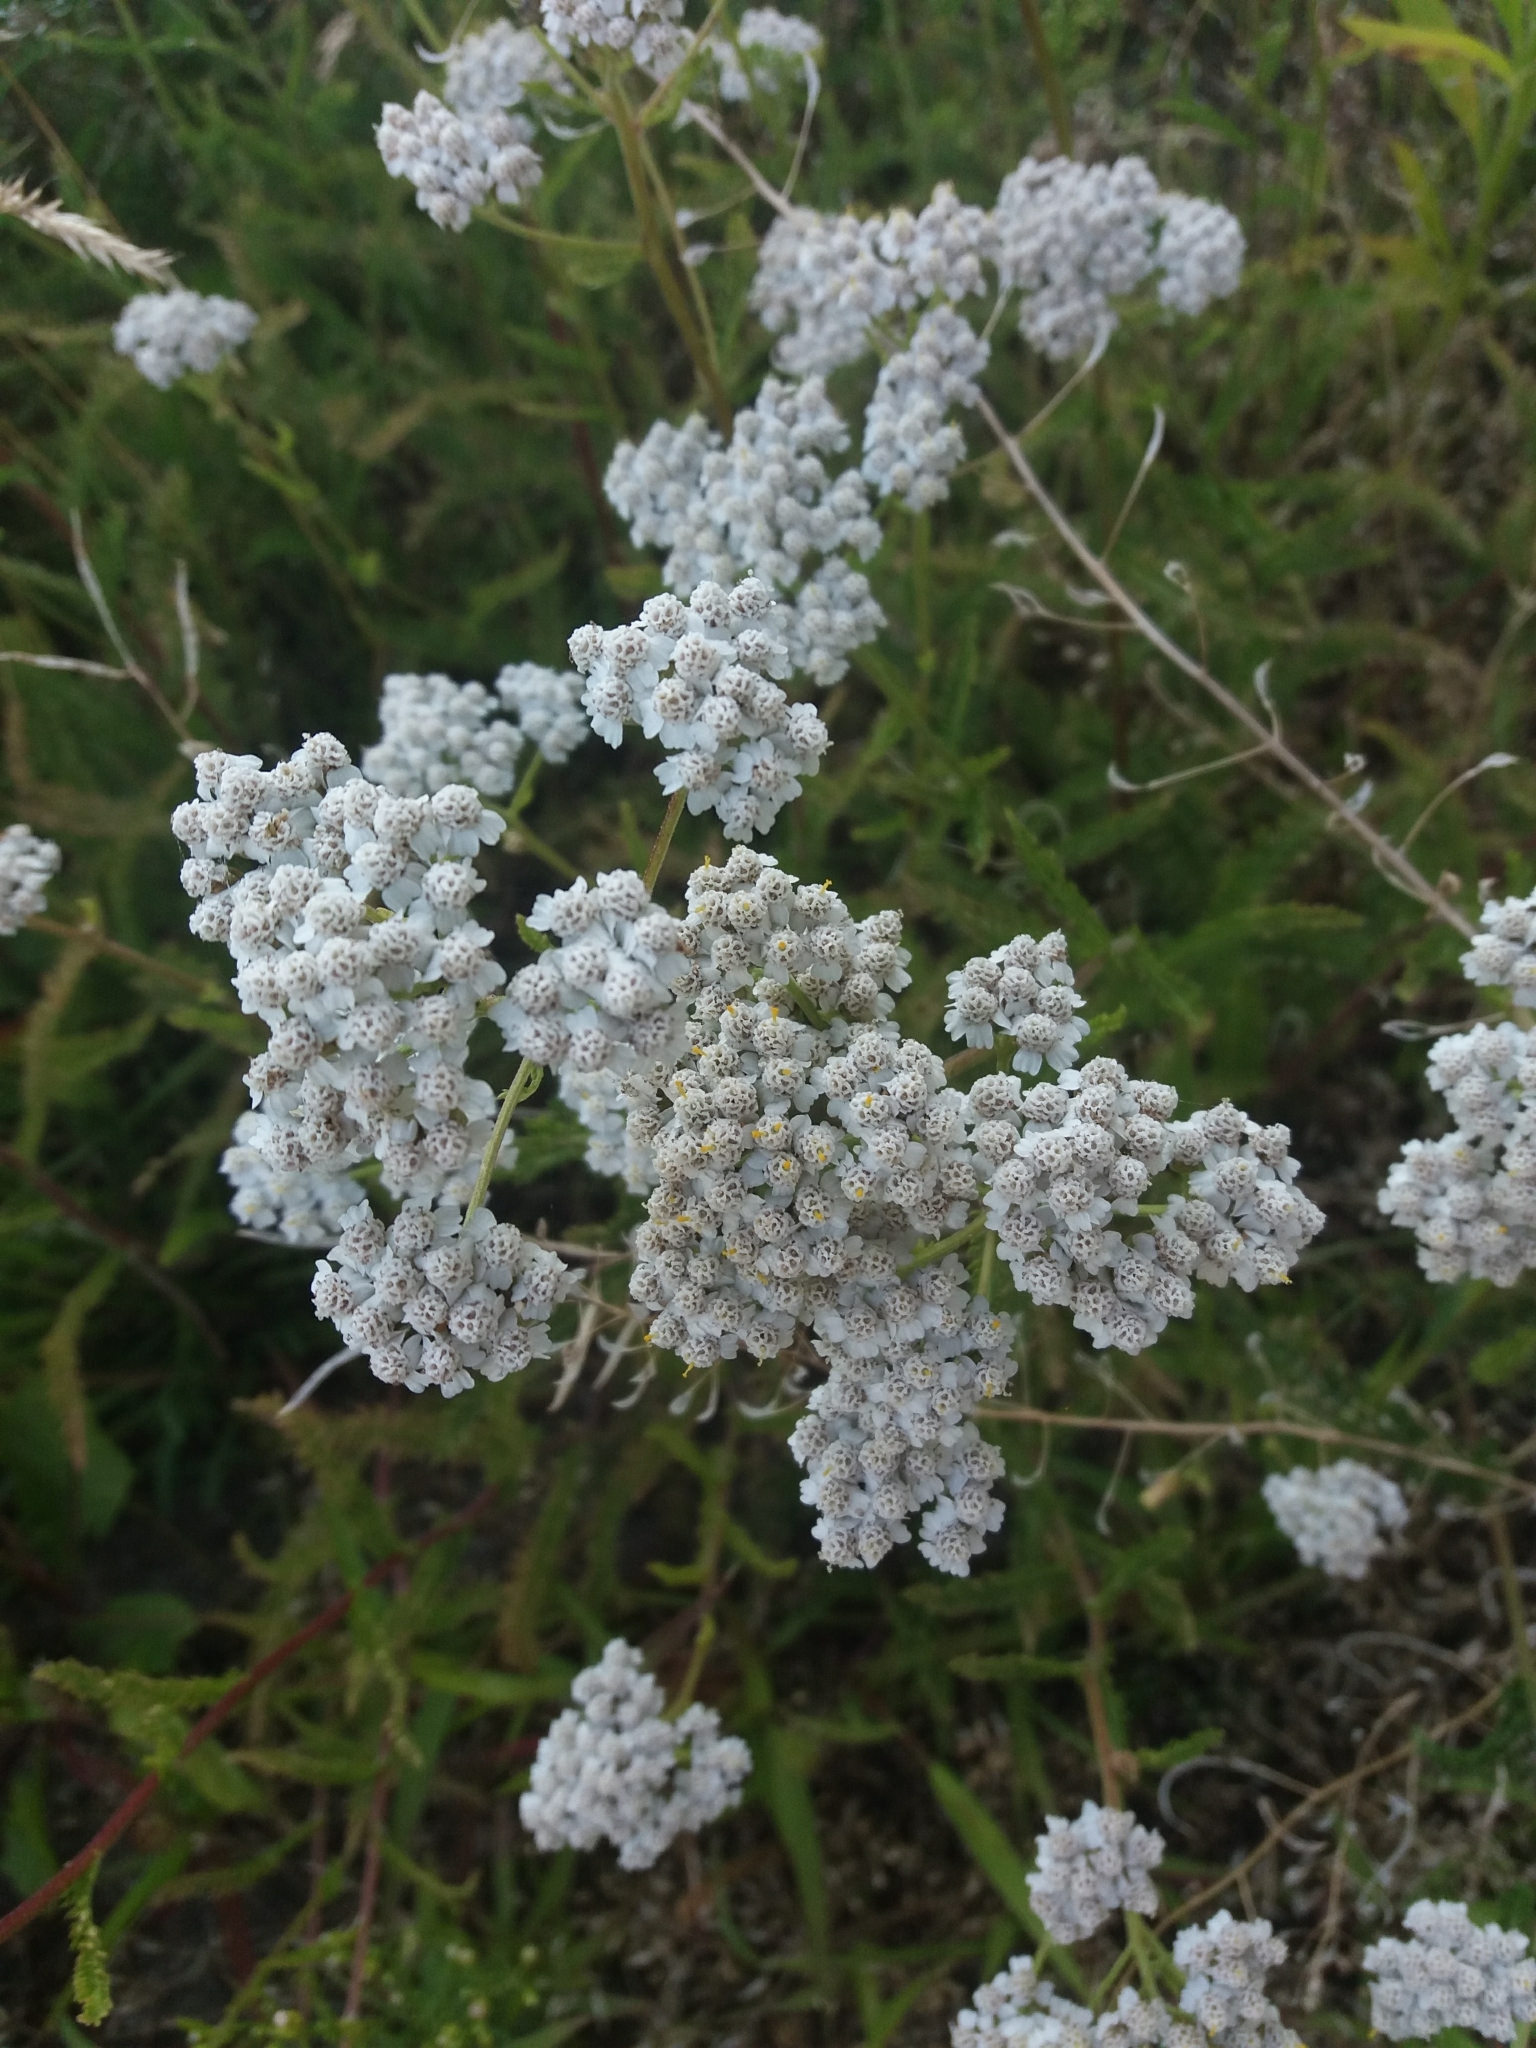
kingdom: Plantae
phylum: Tracheophyta
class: Magnoliopsida
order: Asterales
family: Asteraceae
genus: Achillea
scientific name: Achillea millefolium
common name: Yarrow
